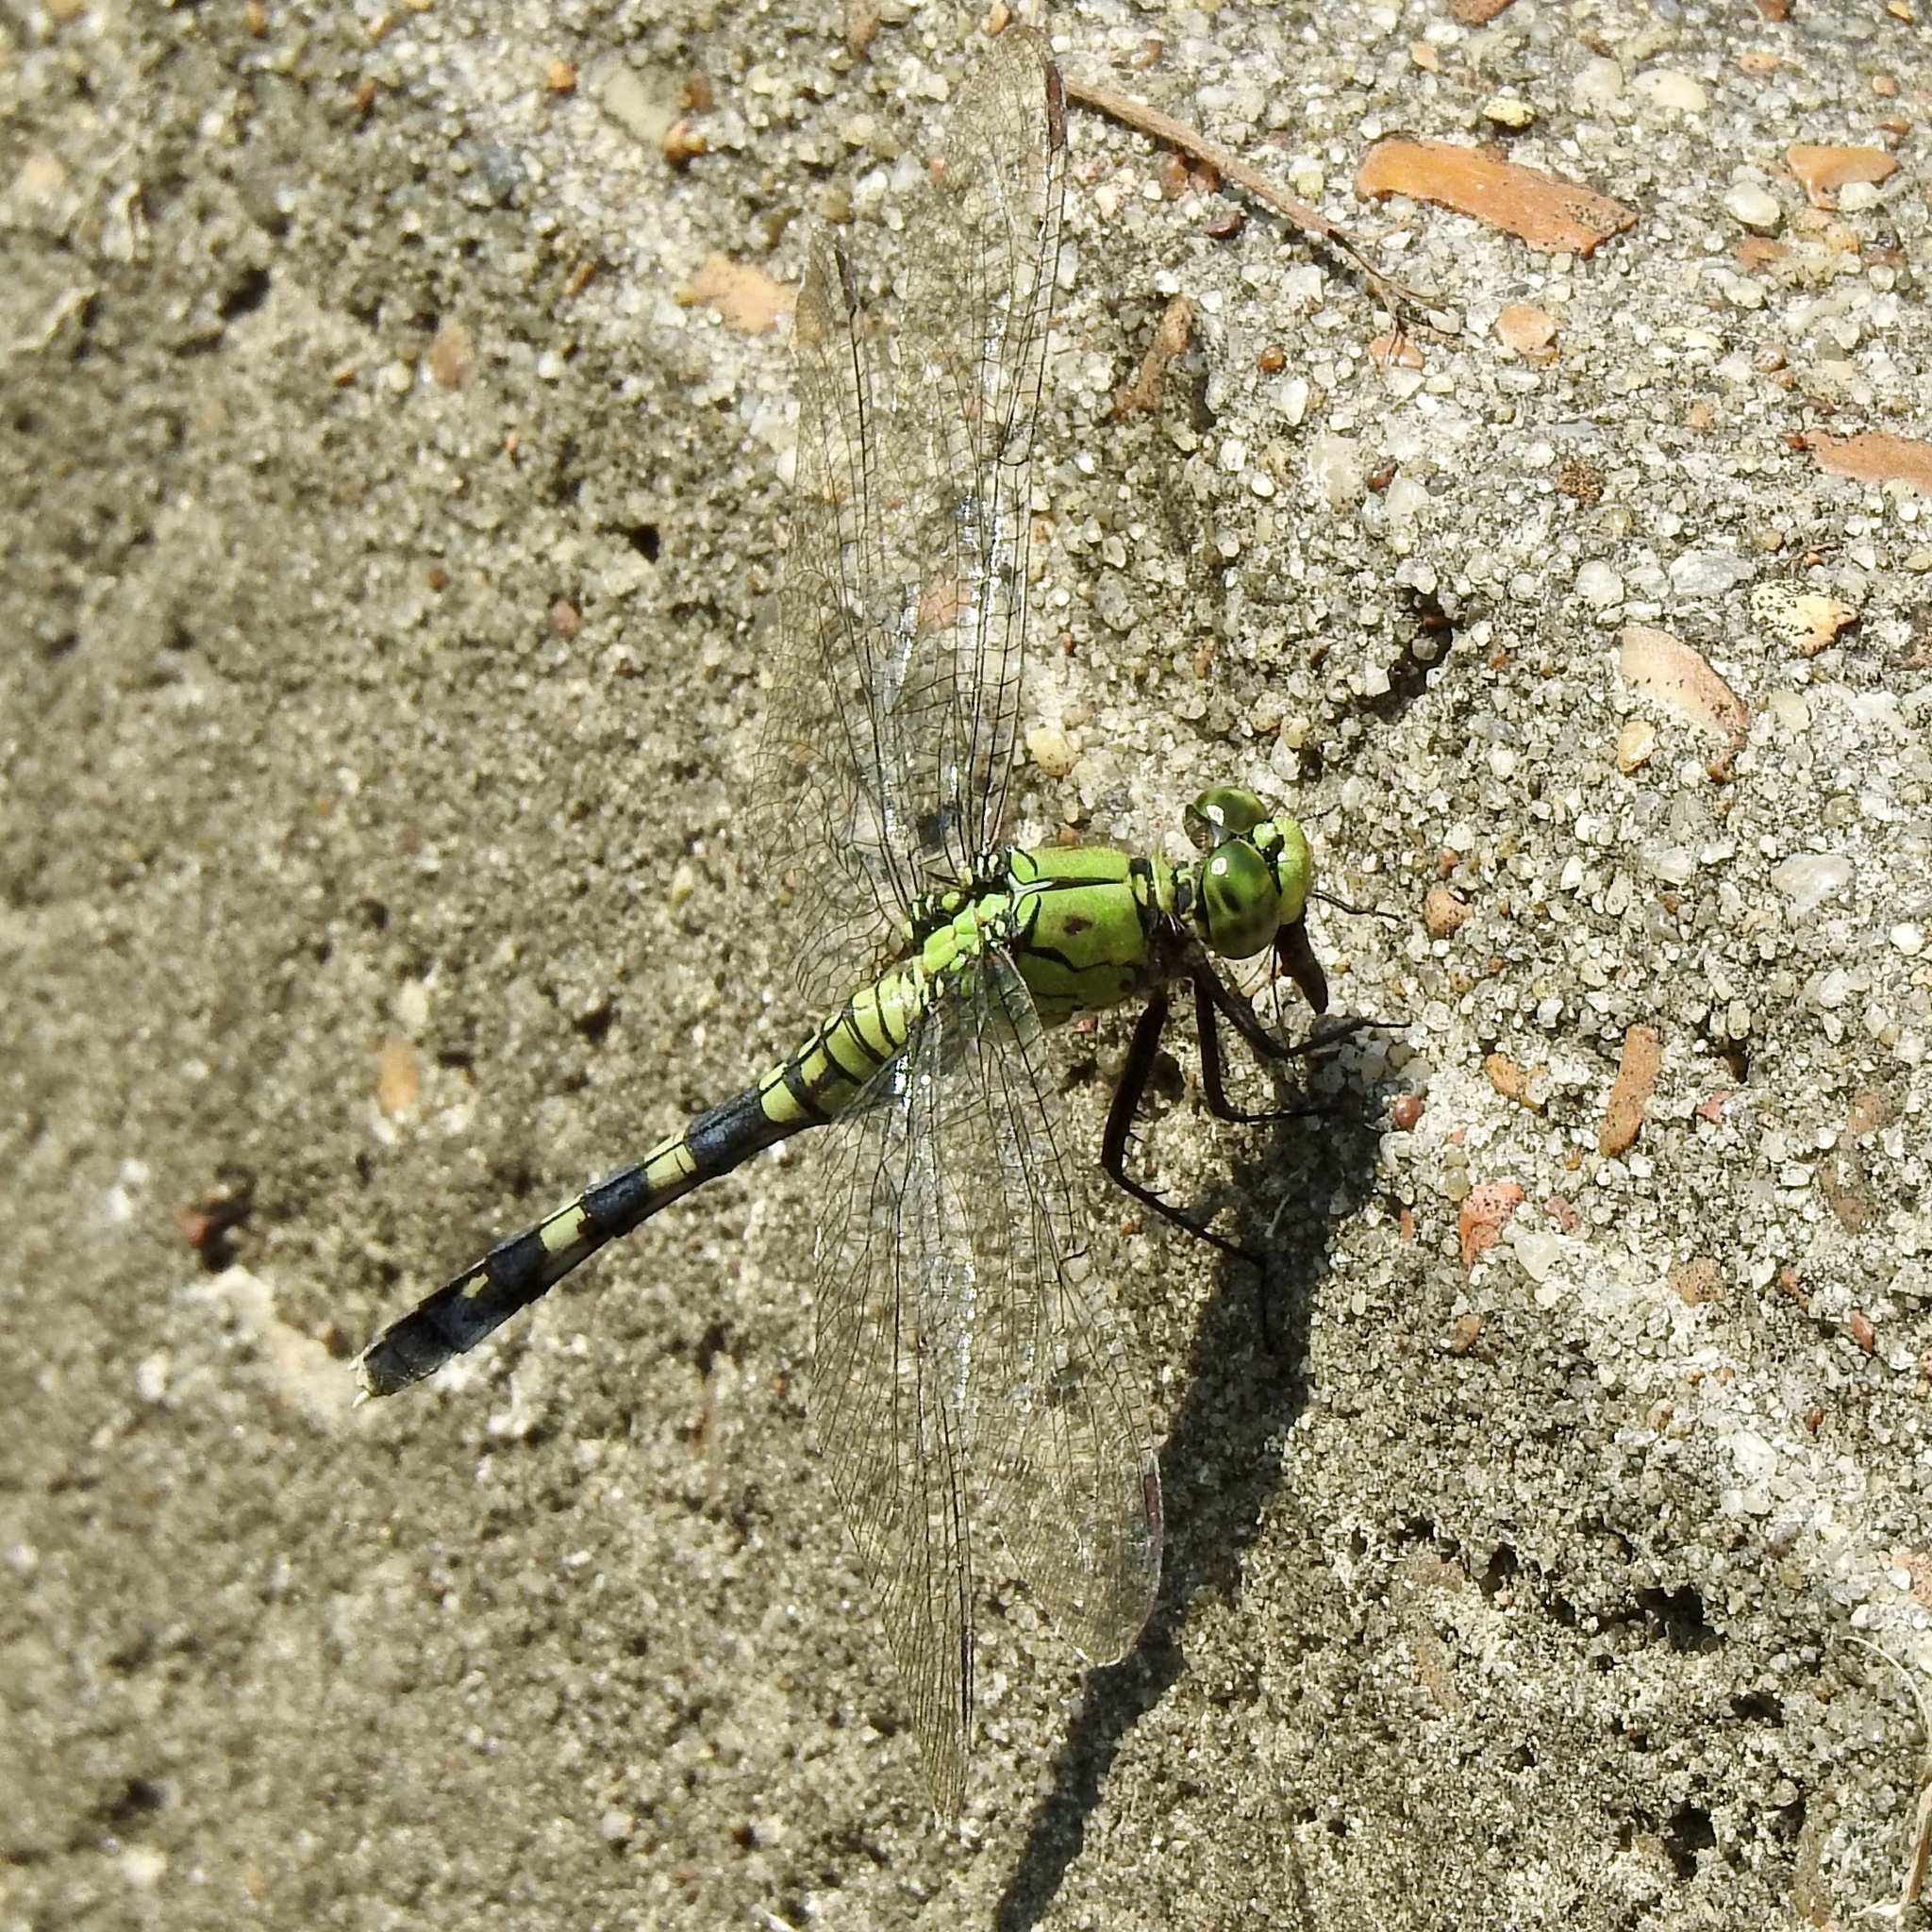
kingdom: Animalia
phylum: Arthropoda
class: Insecta
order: Odonata
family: Libellulidae
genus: Erythemis
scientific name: Erythemis simplicicollis
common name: Eastern pondhawk
